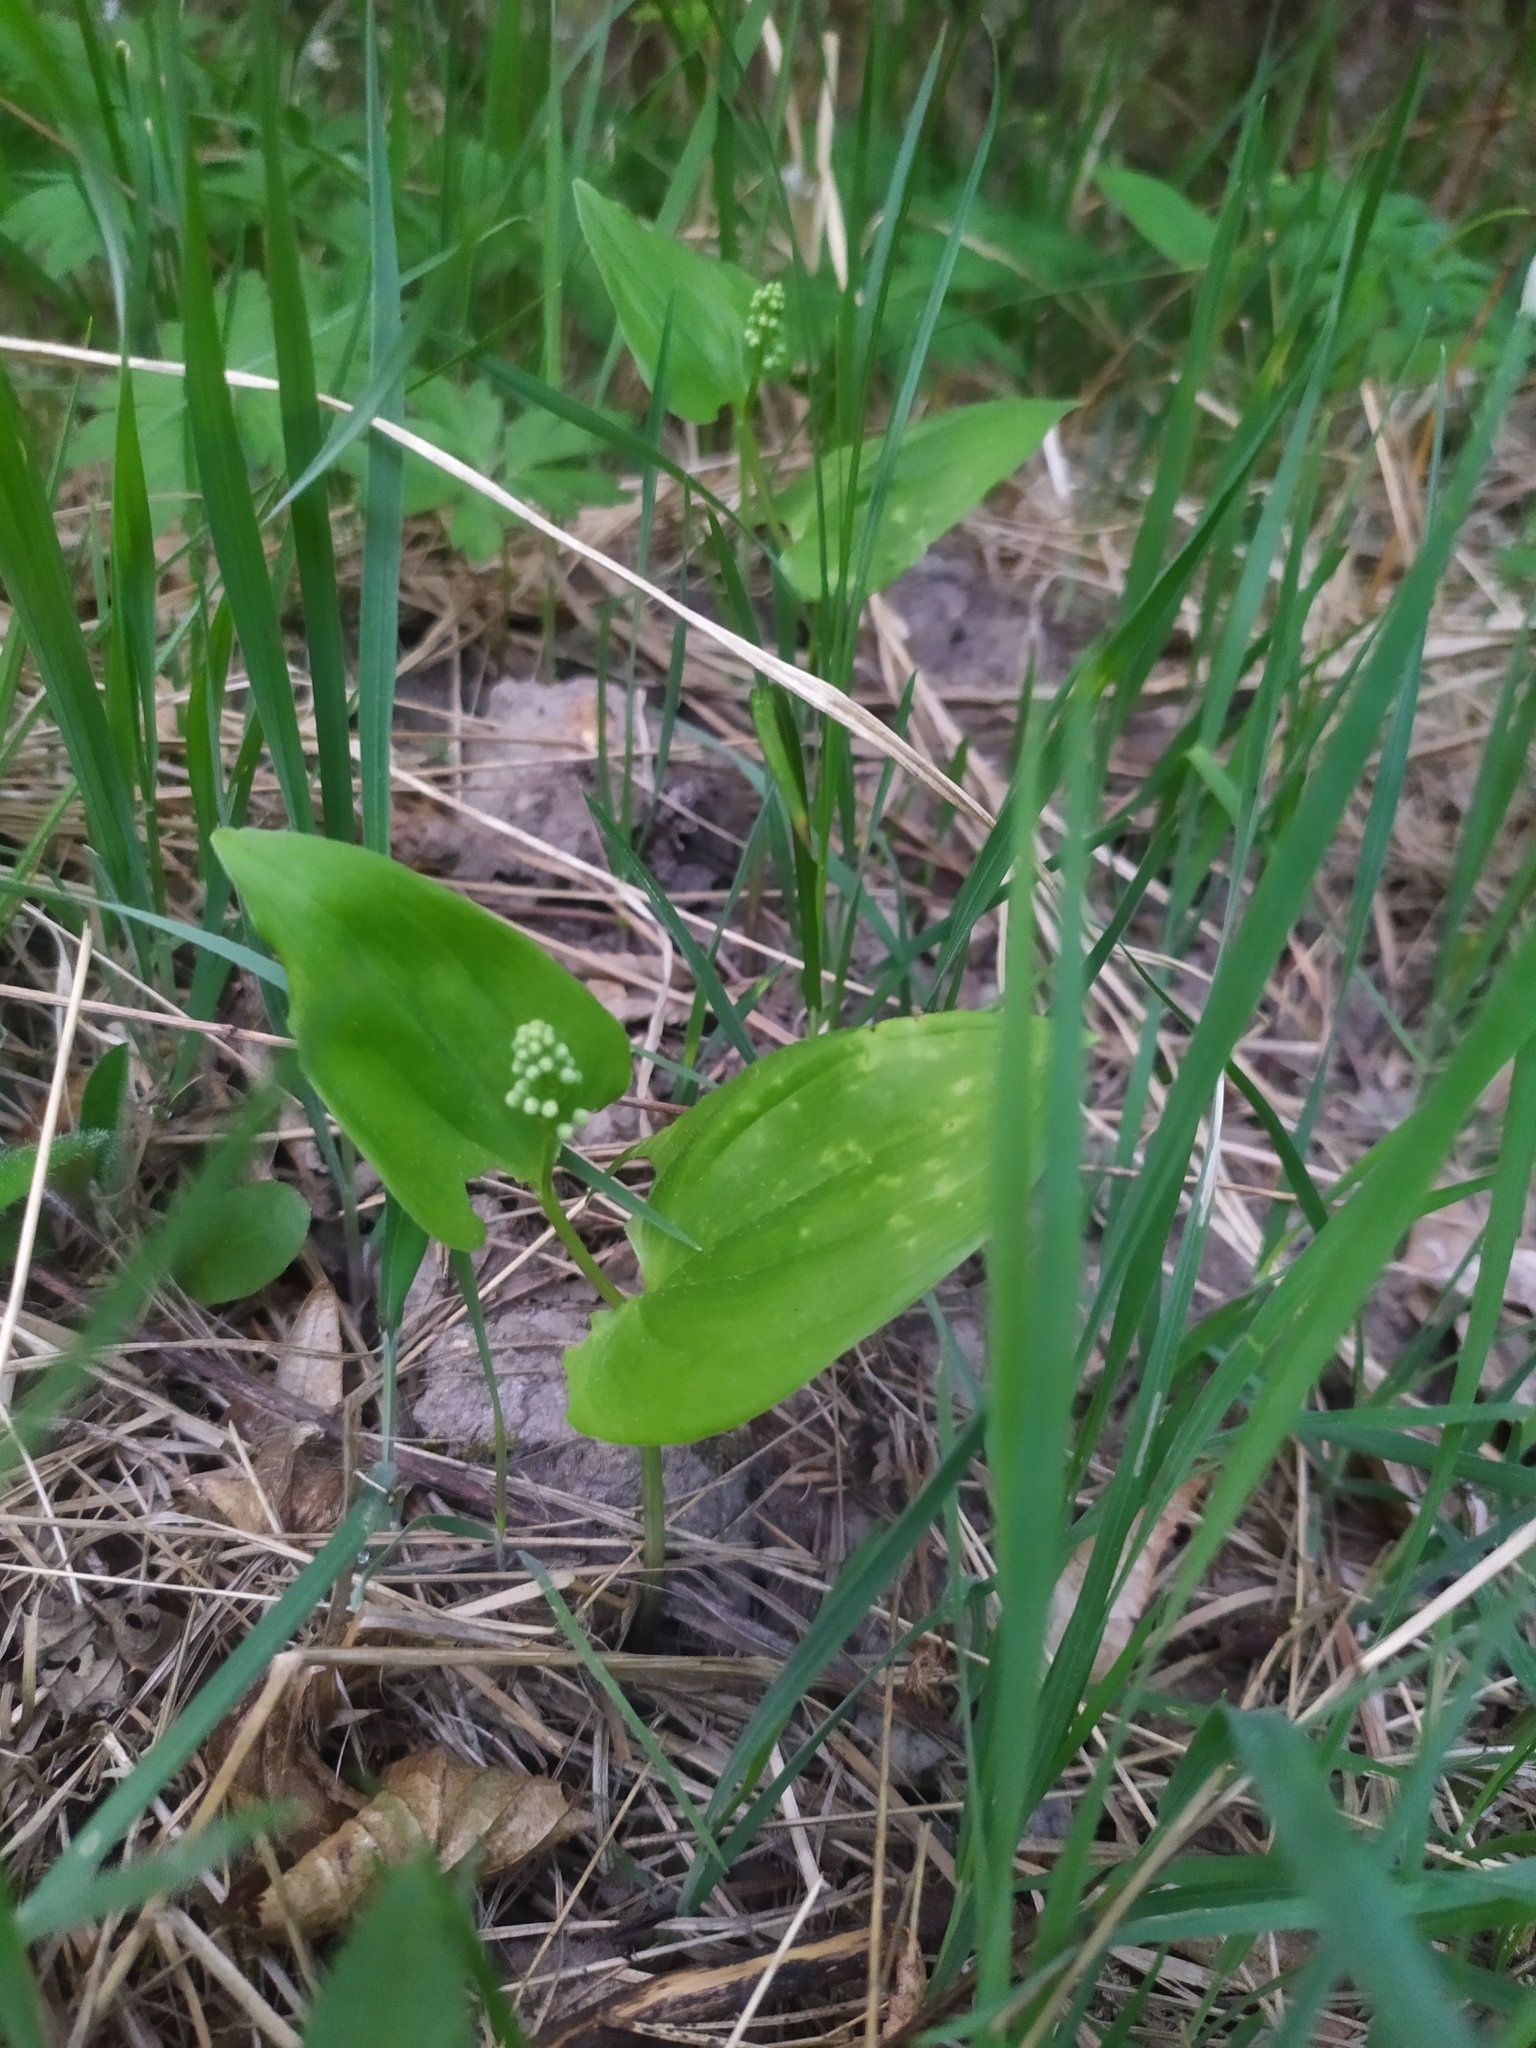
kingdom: Plantae
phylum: Tracheophyta
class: Liliopsida
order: Asparagales
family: Asparagaceae
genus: Maianthemum
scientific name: Maianthemum bifolium
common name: May lily
